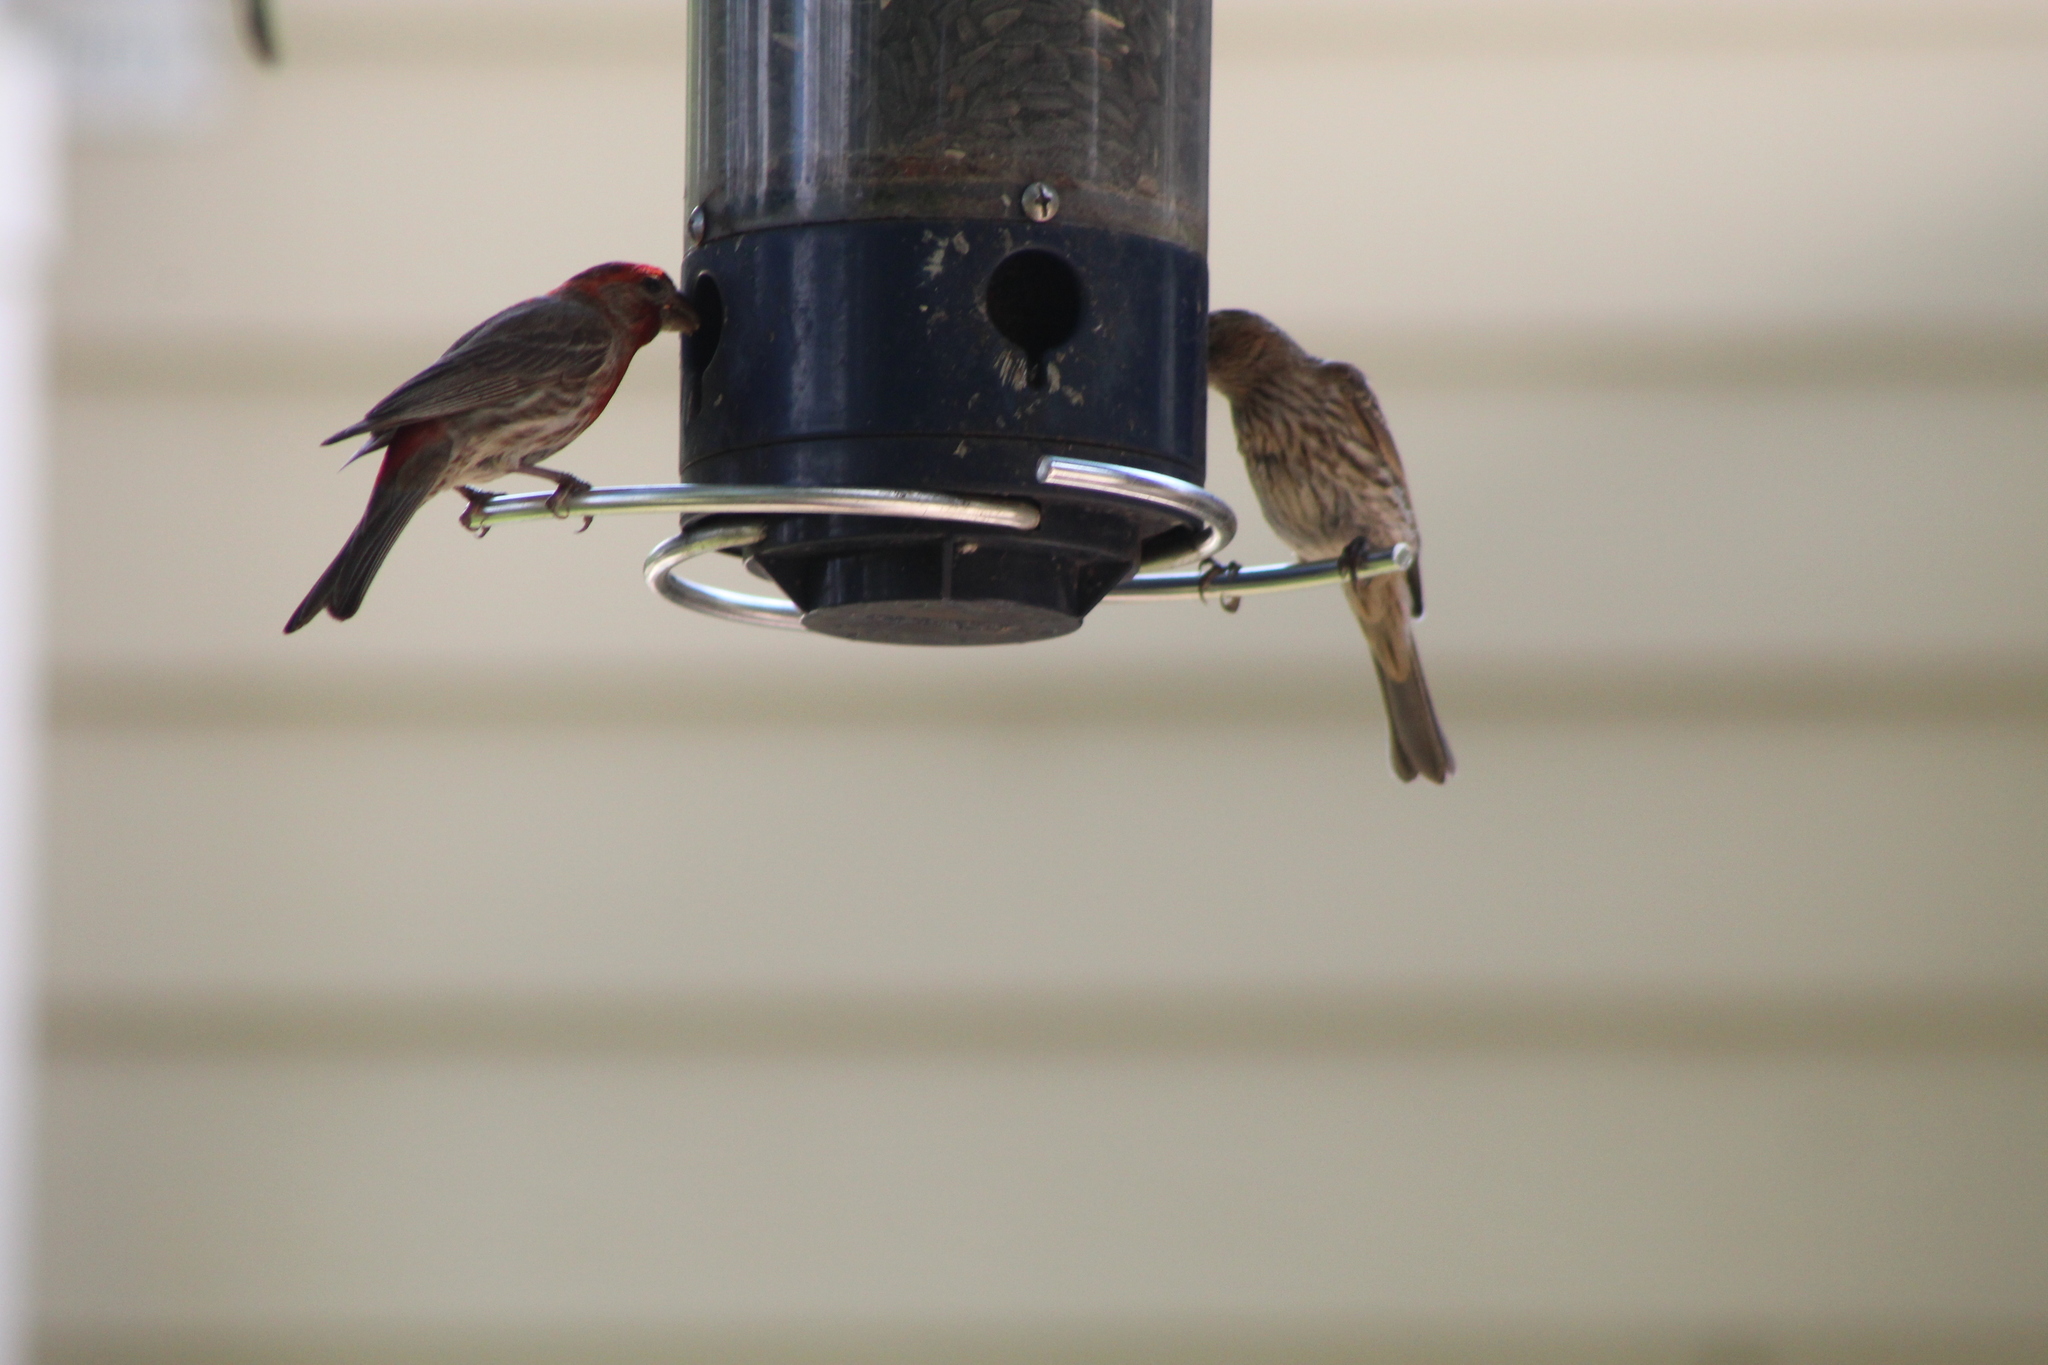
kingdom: Animalia
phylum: Chordata
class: Aves
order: Passeriformes
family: Fringillidae
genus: Haemorhous
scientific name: Haemorhous mexicanus
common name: House finch
